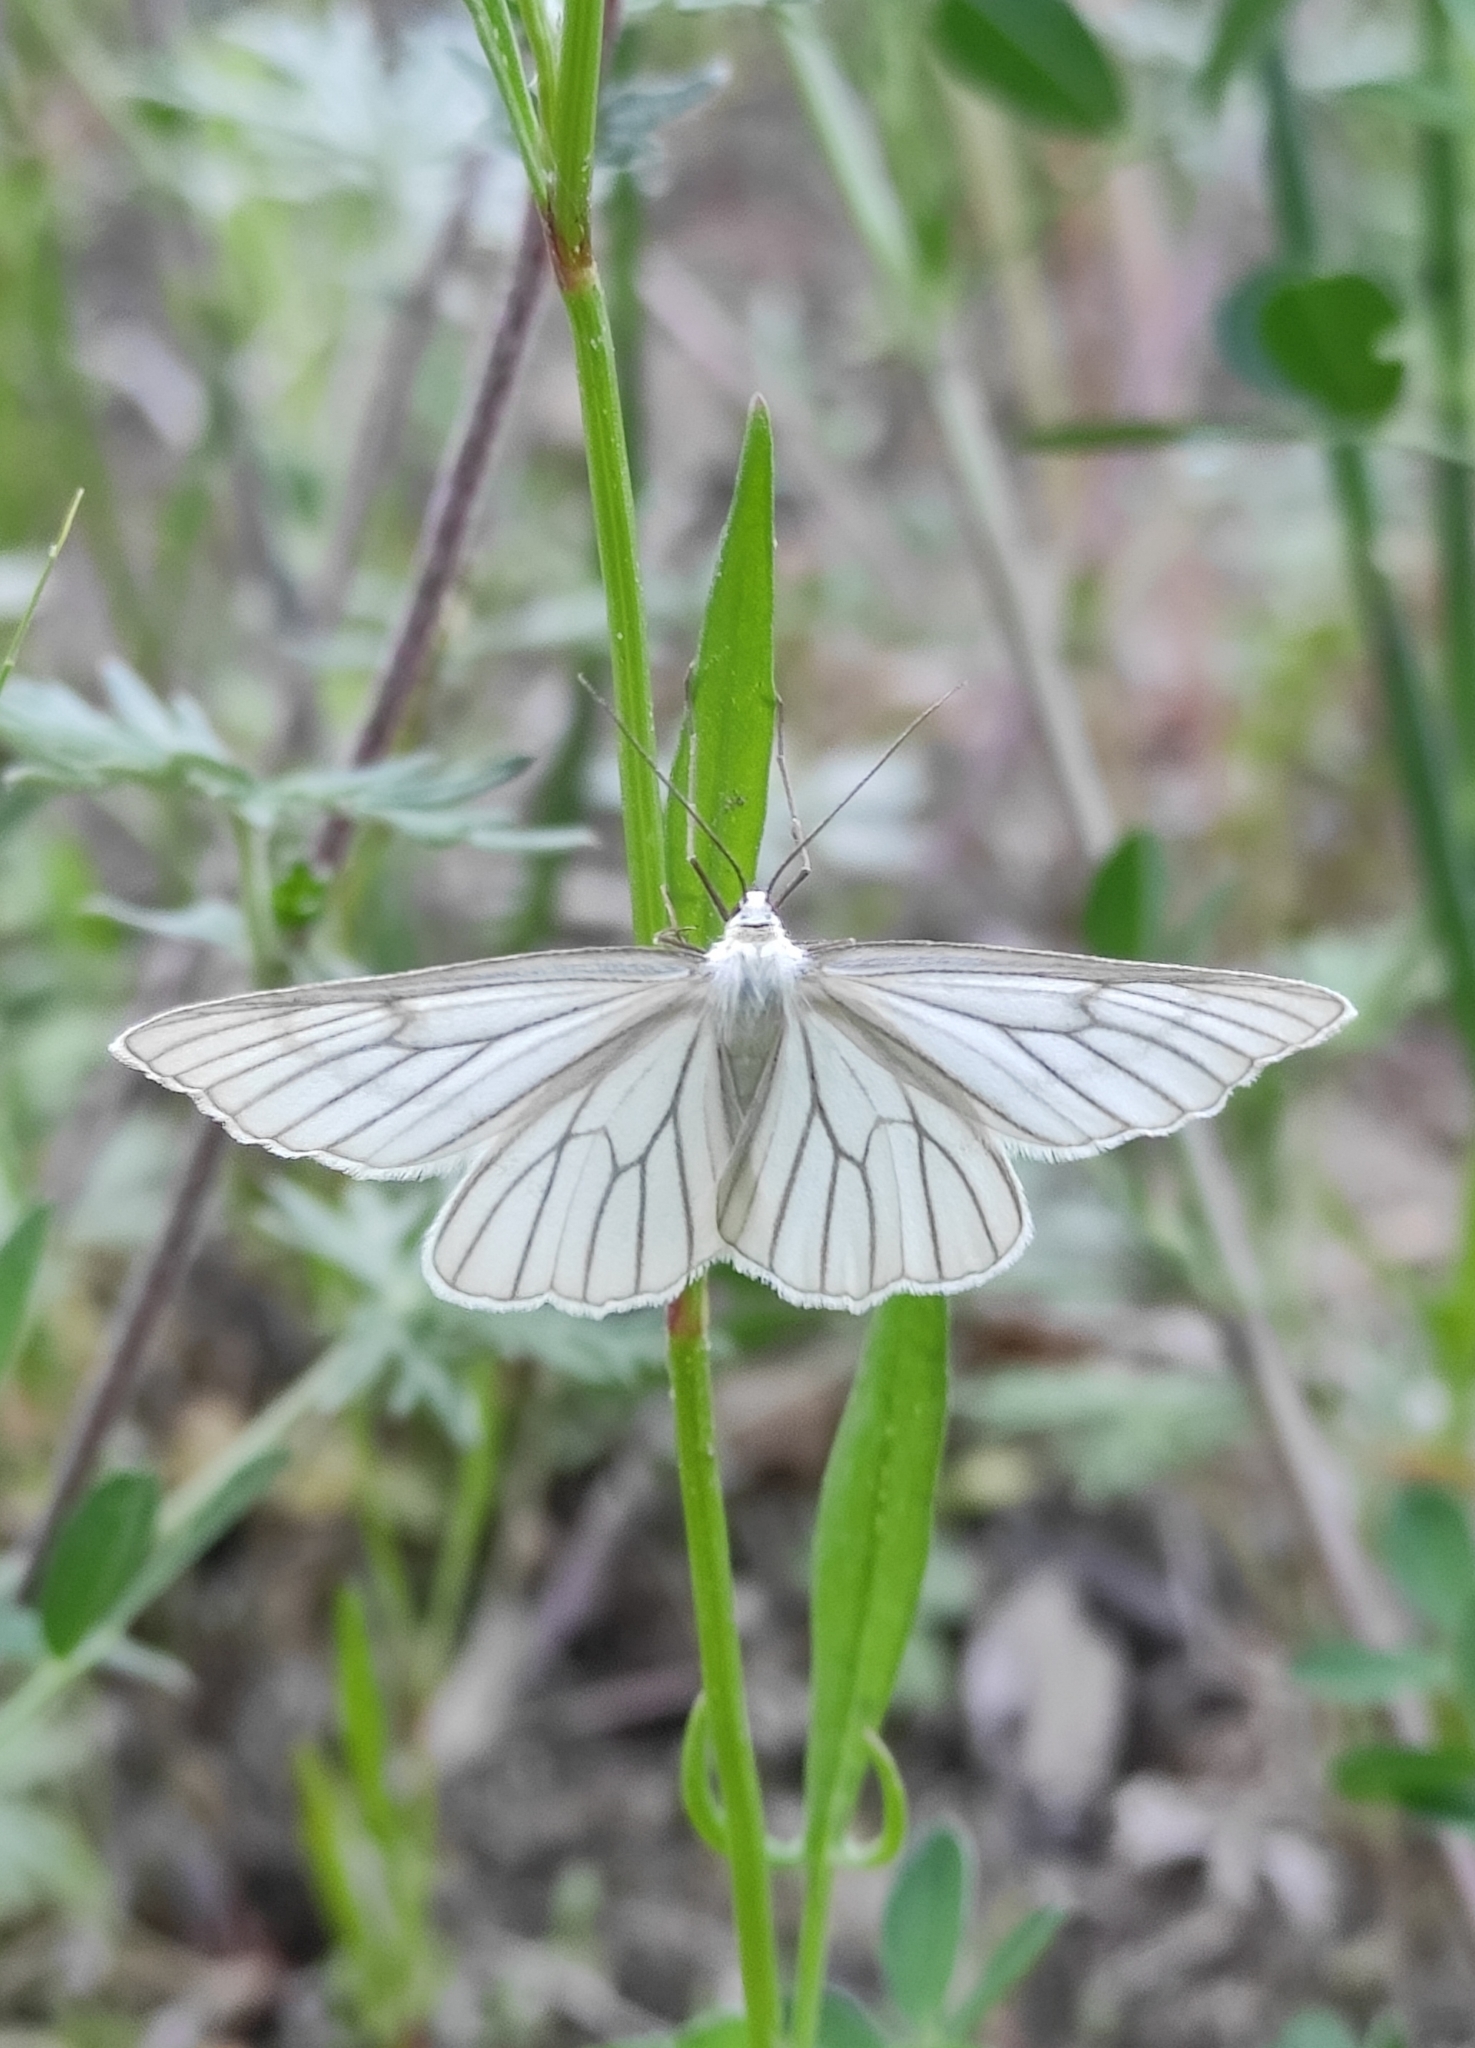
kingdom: Animalia
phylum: Arthropoda
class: Insecta
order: Lepidoptera
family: Geometridae
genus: Siona
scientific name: Siona lineata
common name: Black-veined moth
